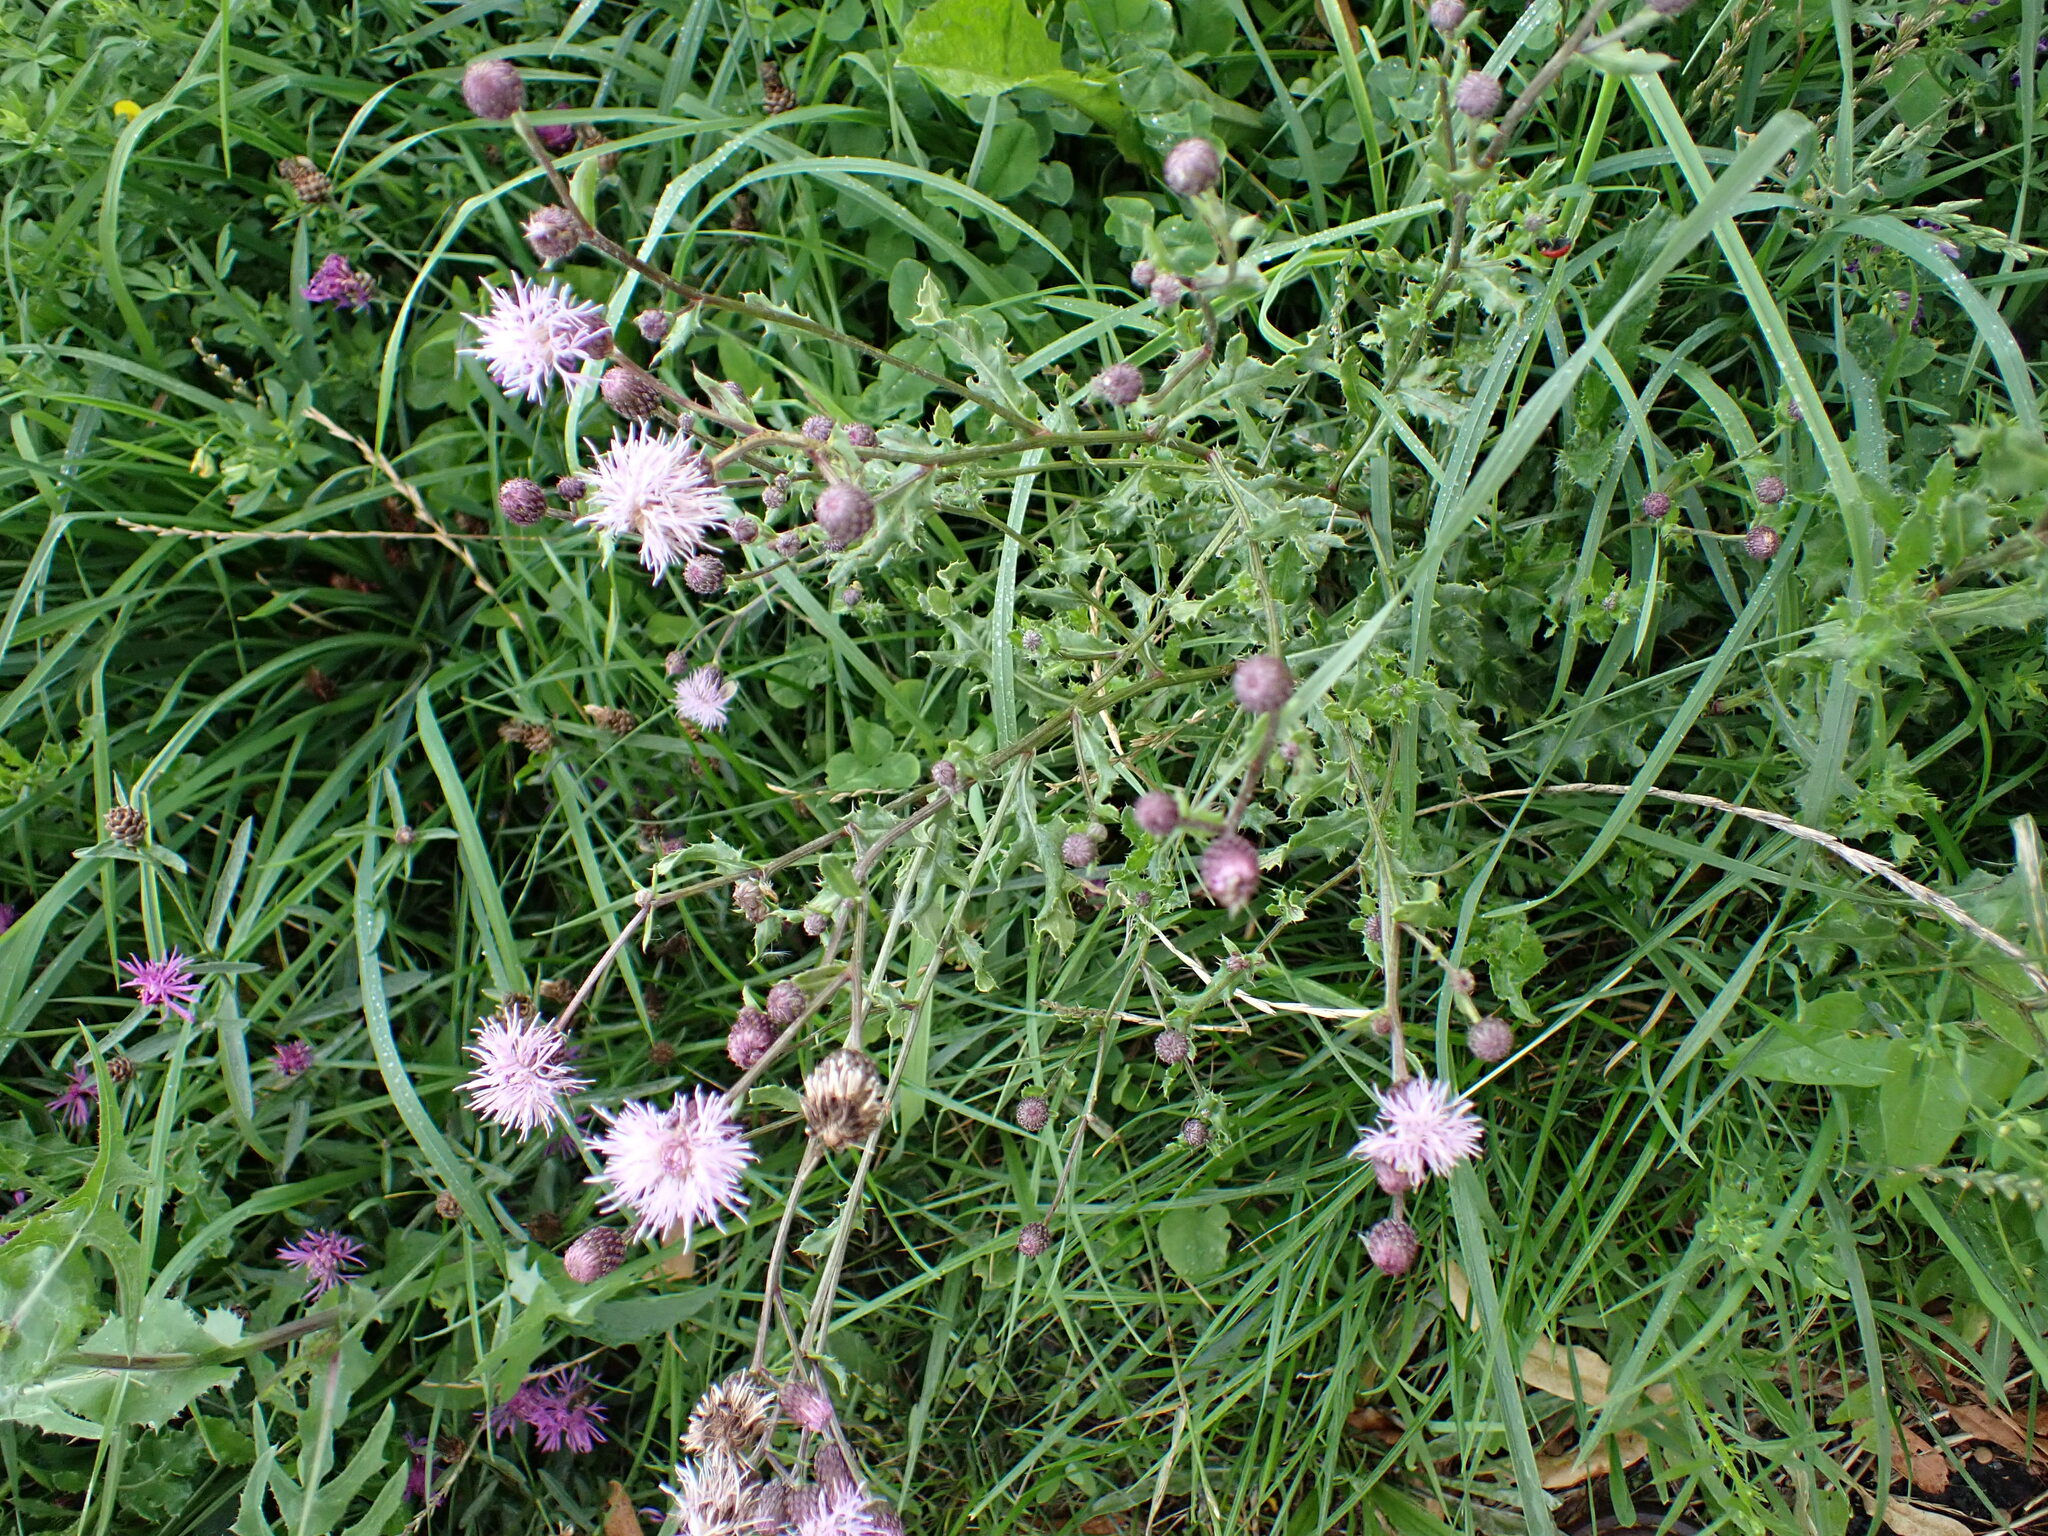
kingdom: Plantae
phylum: Tracheophyta
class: Magnoliopsida
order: Asterales
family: Asteraceae
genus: Cirsium
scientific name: Cirsium arvense
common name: Creeping thistle
